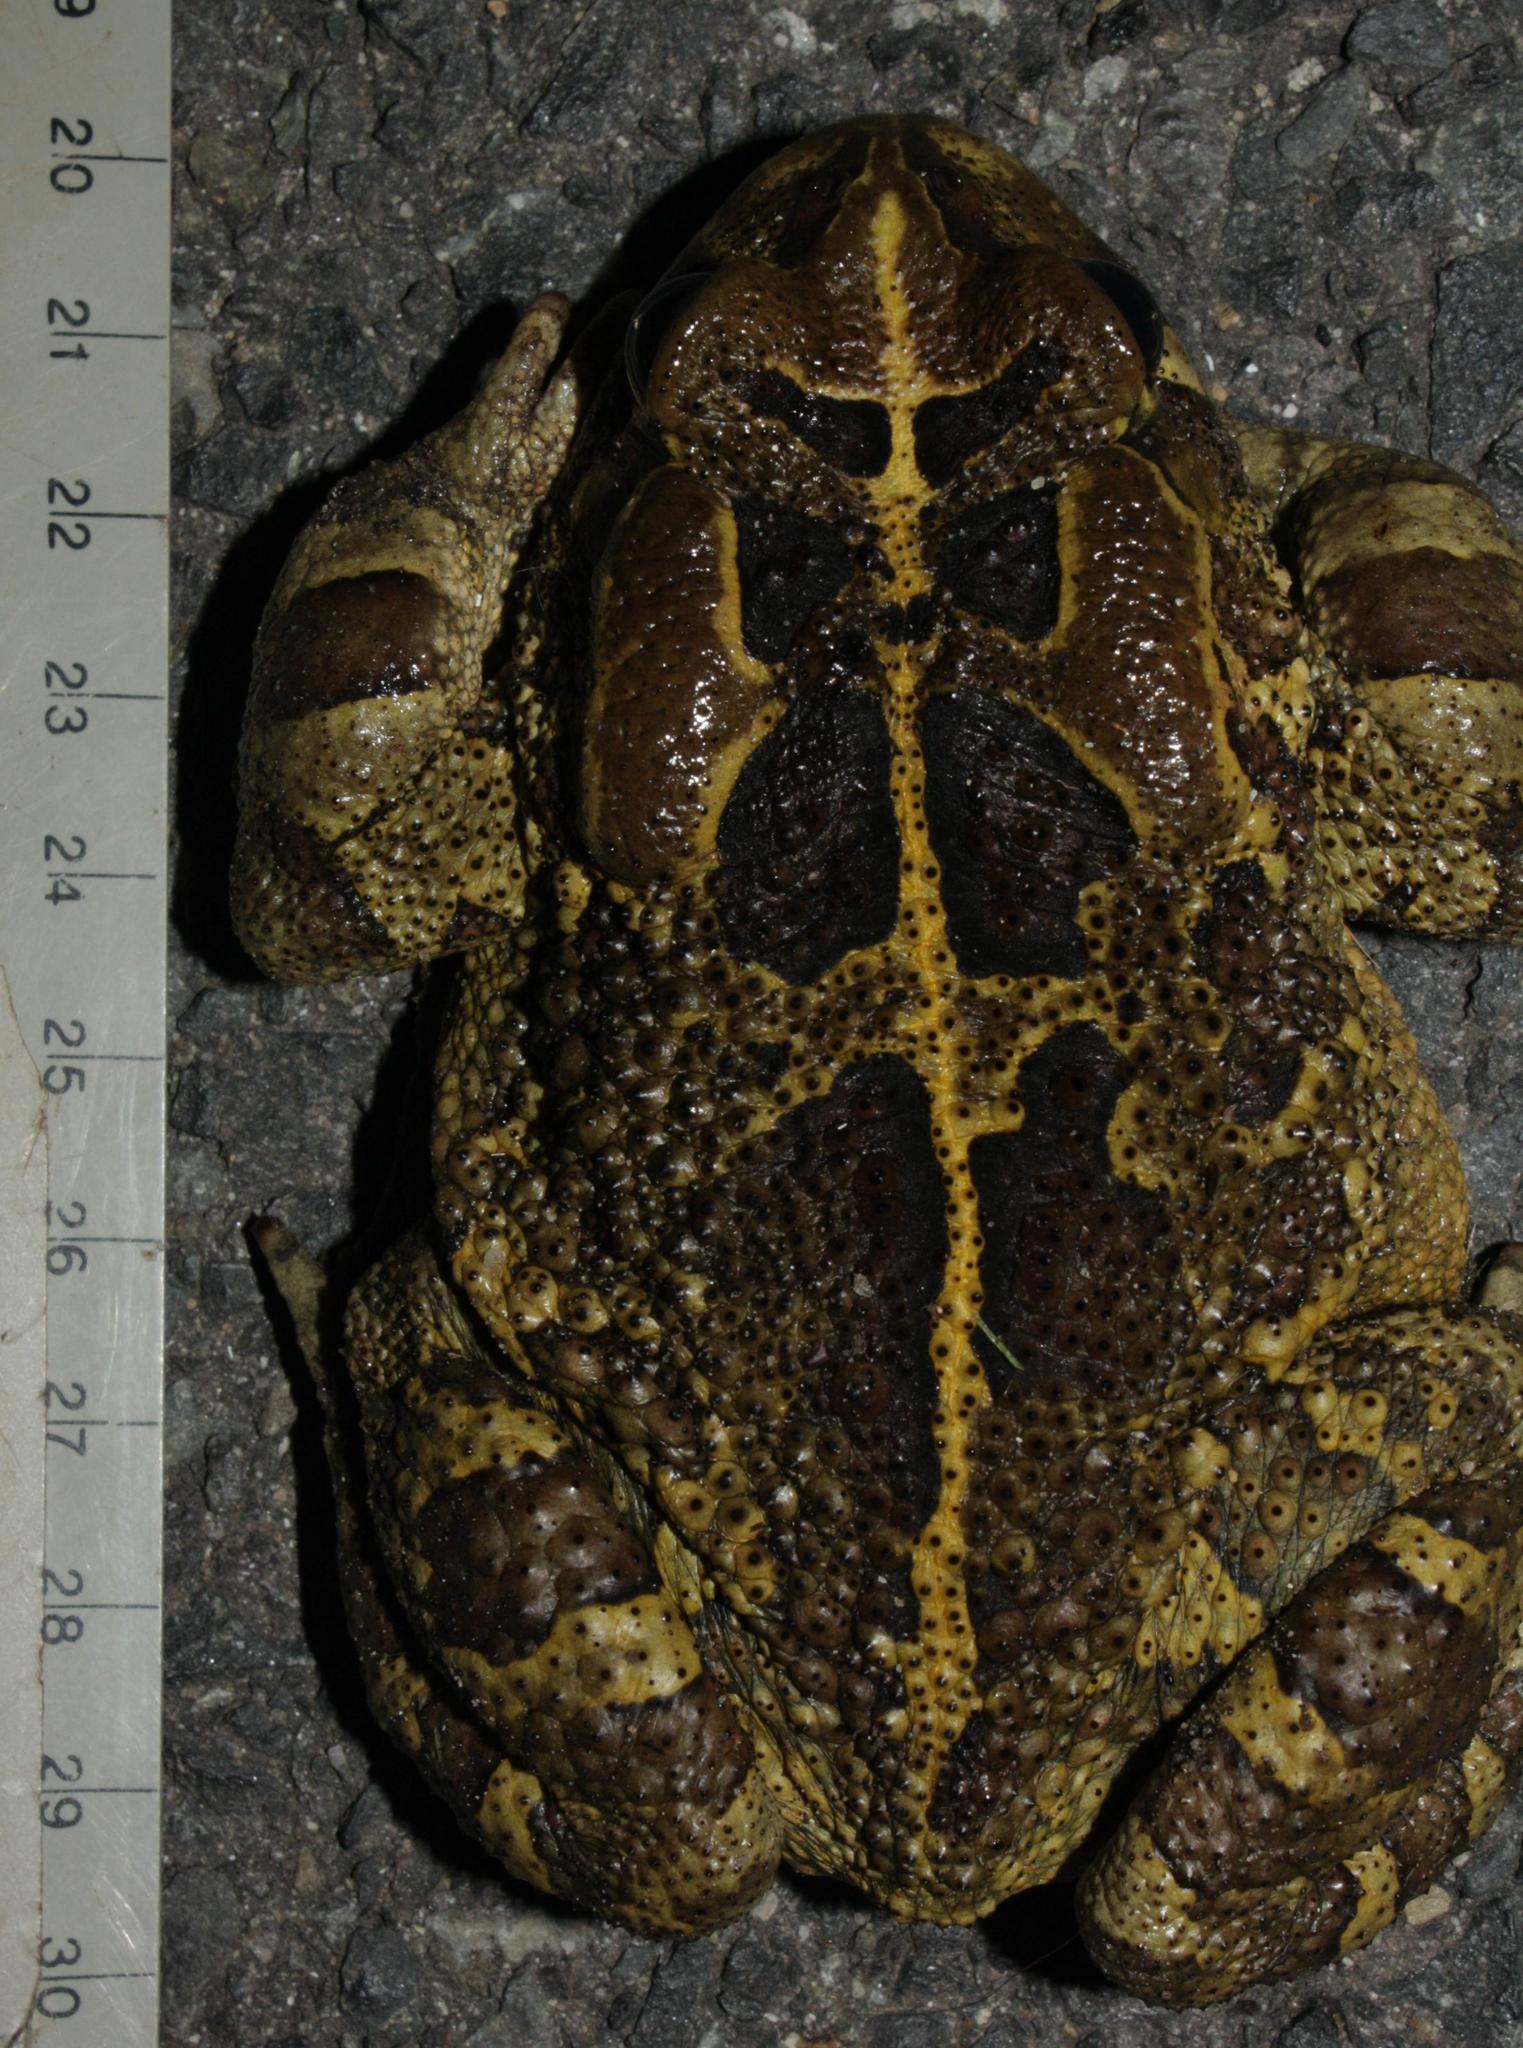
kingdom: Animalia
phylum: Chordata
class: Amphibia
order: Anura
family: Bufonidae
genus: Sclerophrys
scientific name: Sclerophrys pantherina
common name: Panther toad
